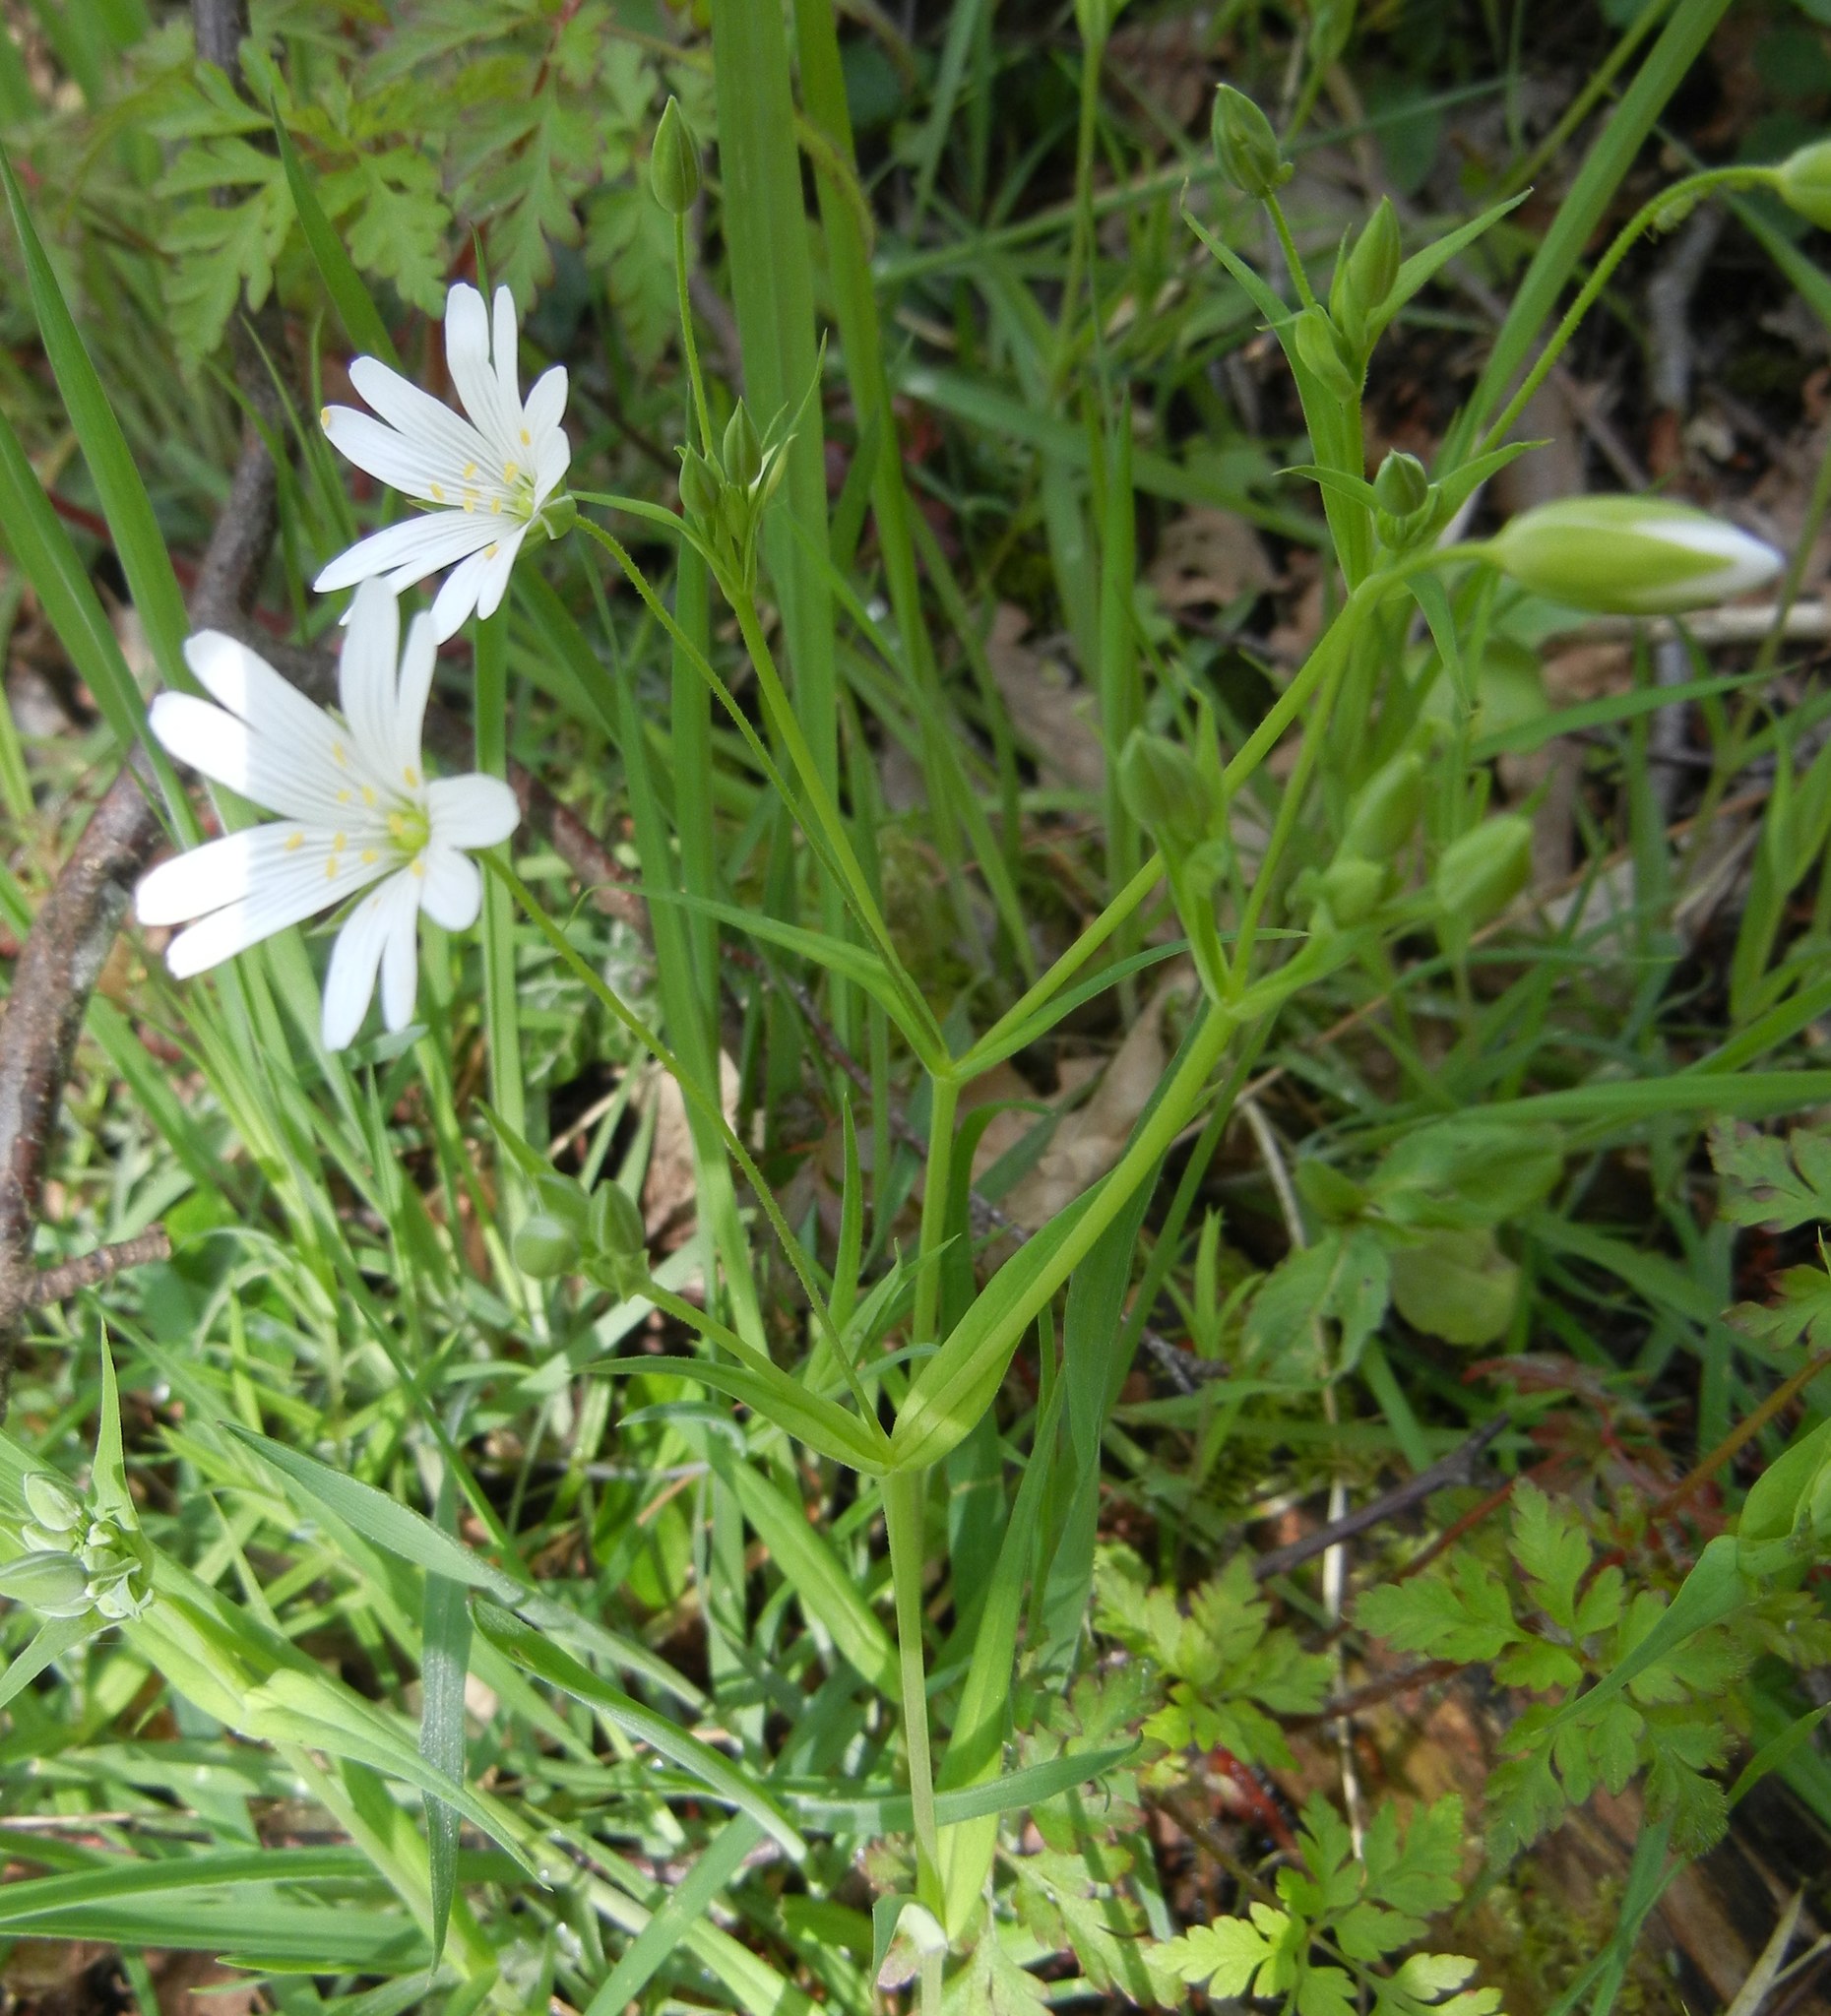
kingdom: Plantae
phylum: Tracheophyta
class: Magnoliopsida
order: Caryophyllales
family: Caryophyllaceae
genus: Rabelera
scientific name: Rabelera holostea
